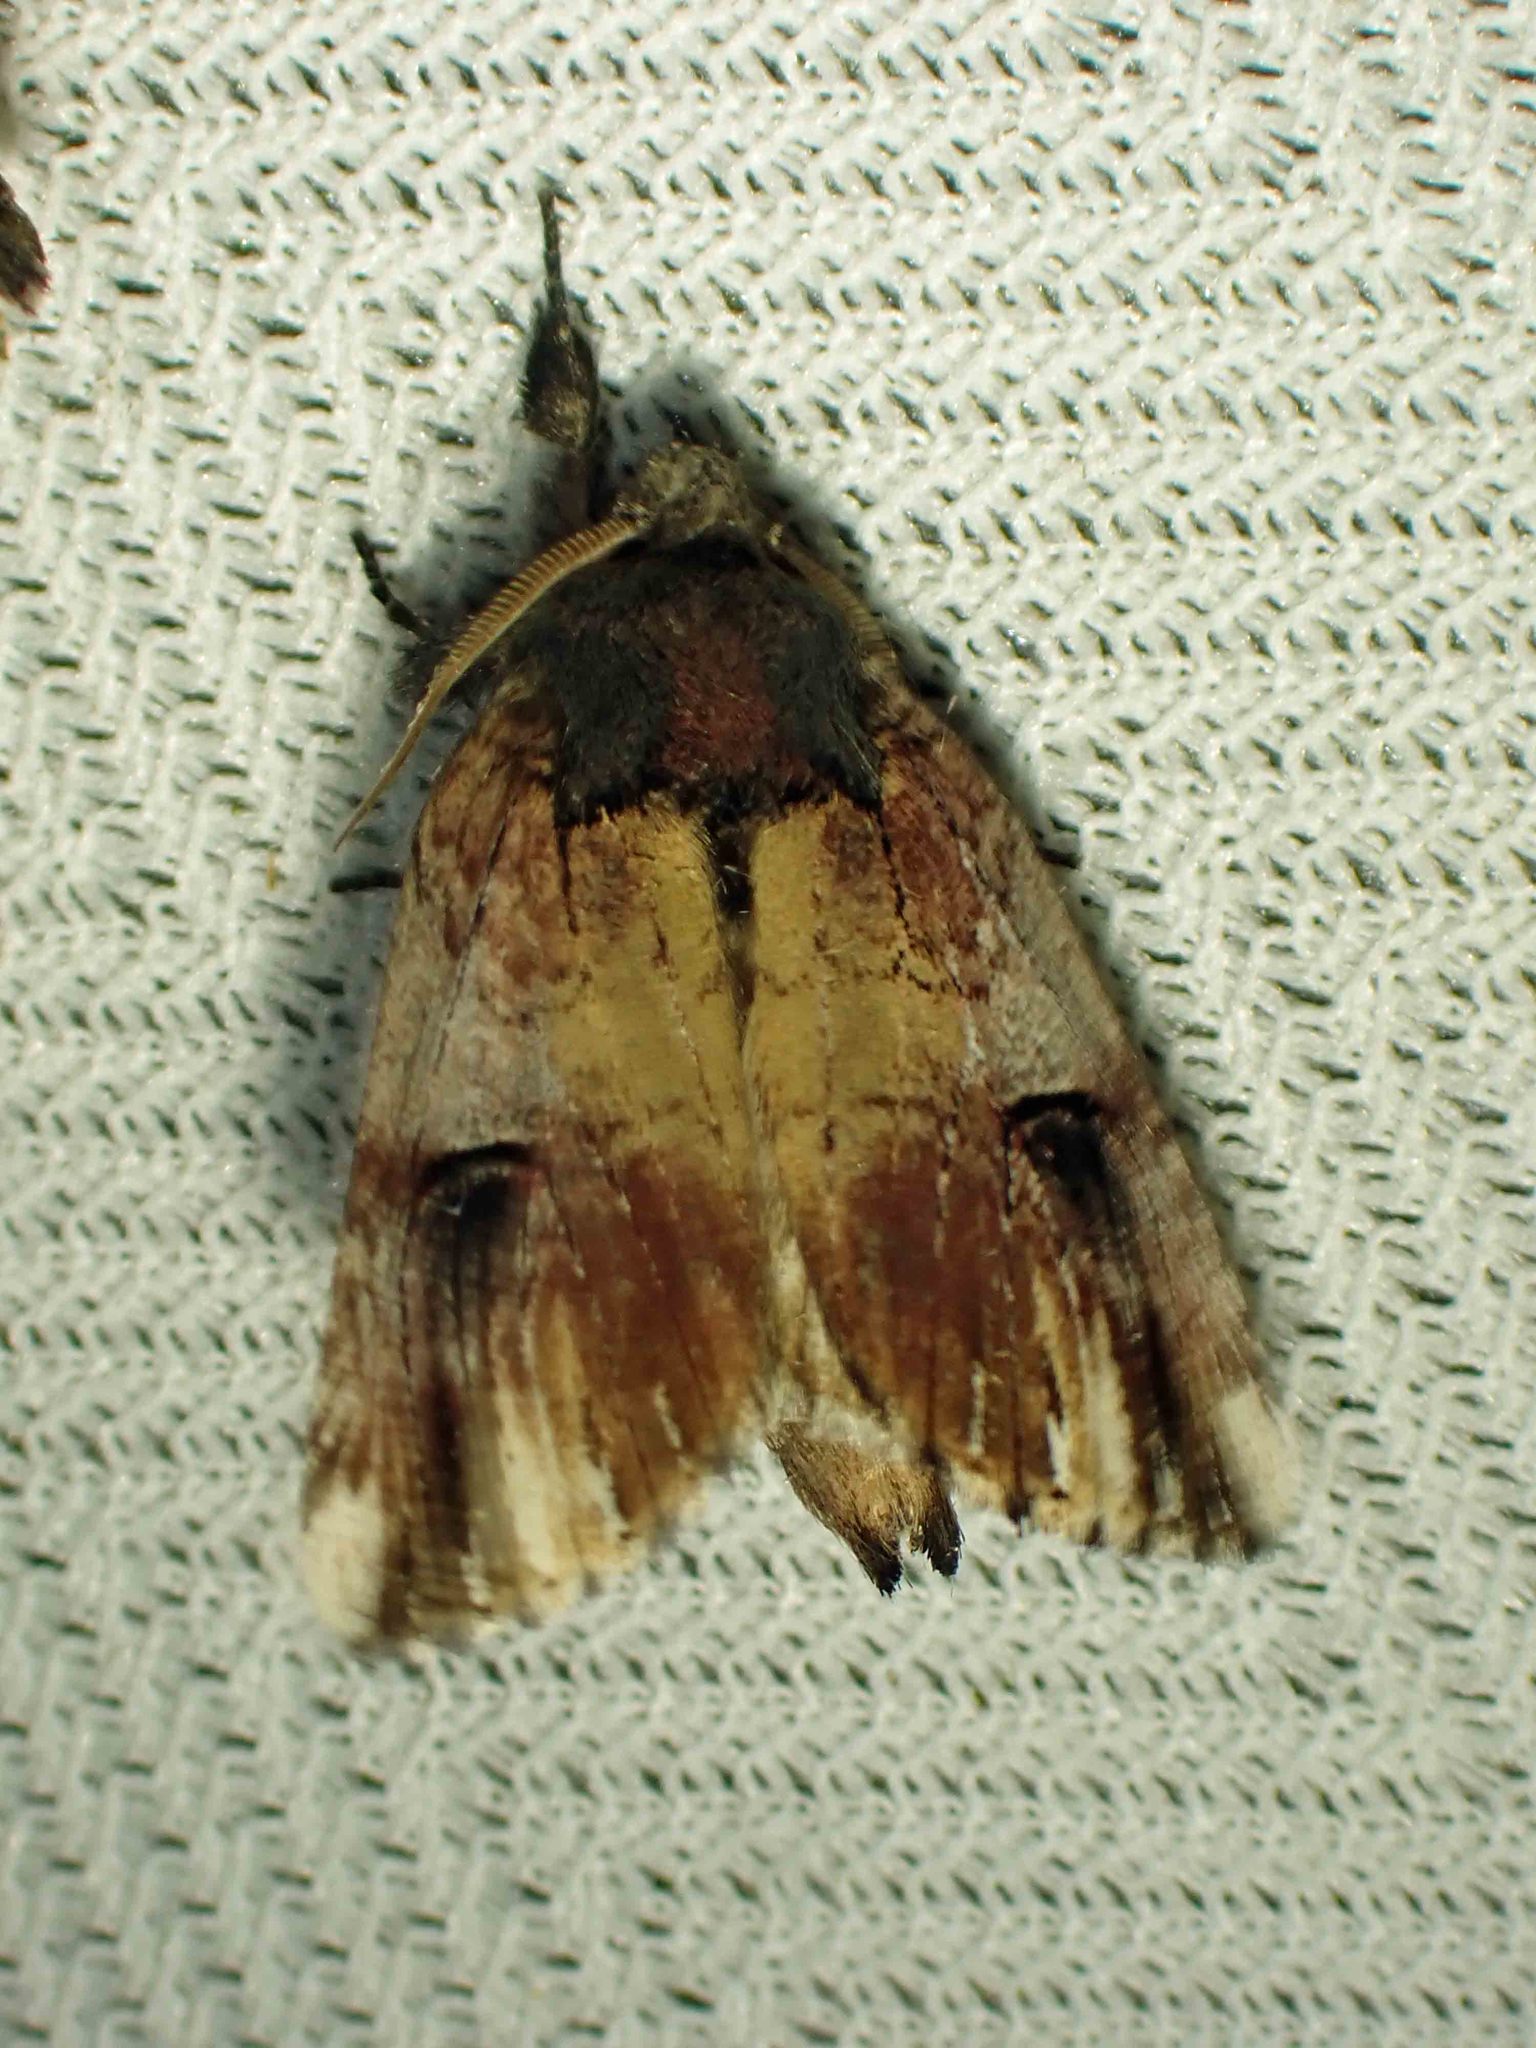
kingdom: Animalia
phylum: Arthropoda
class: Insecta
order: Lepidoptera
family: Notodontidae
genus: Schizura
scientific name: Schizura badia
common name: Chestnut schizura
